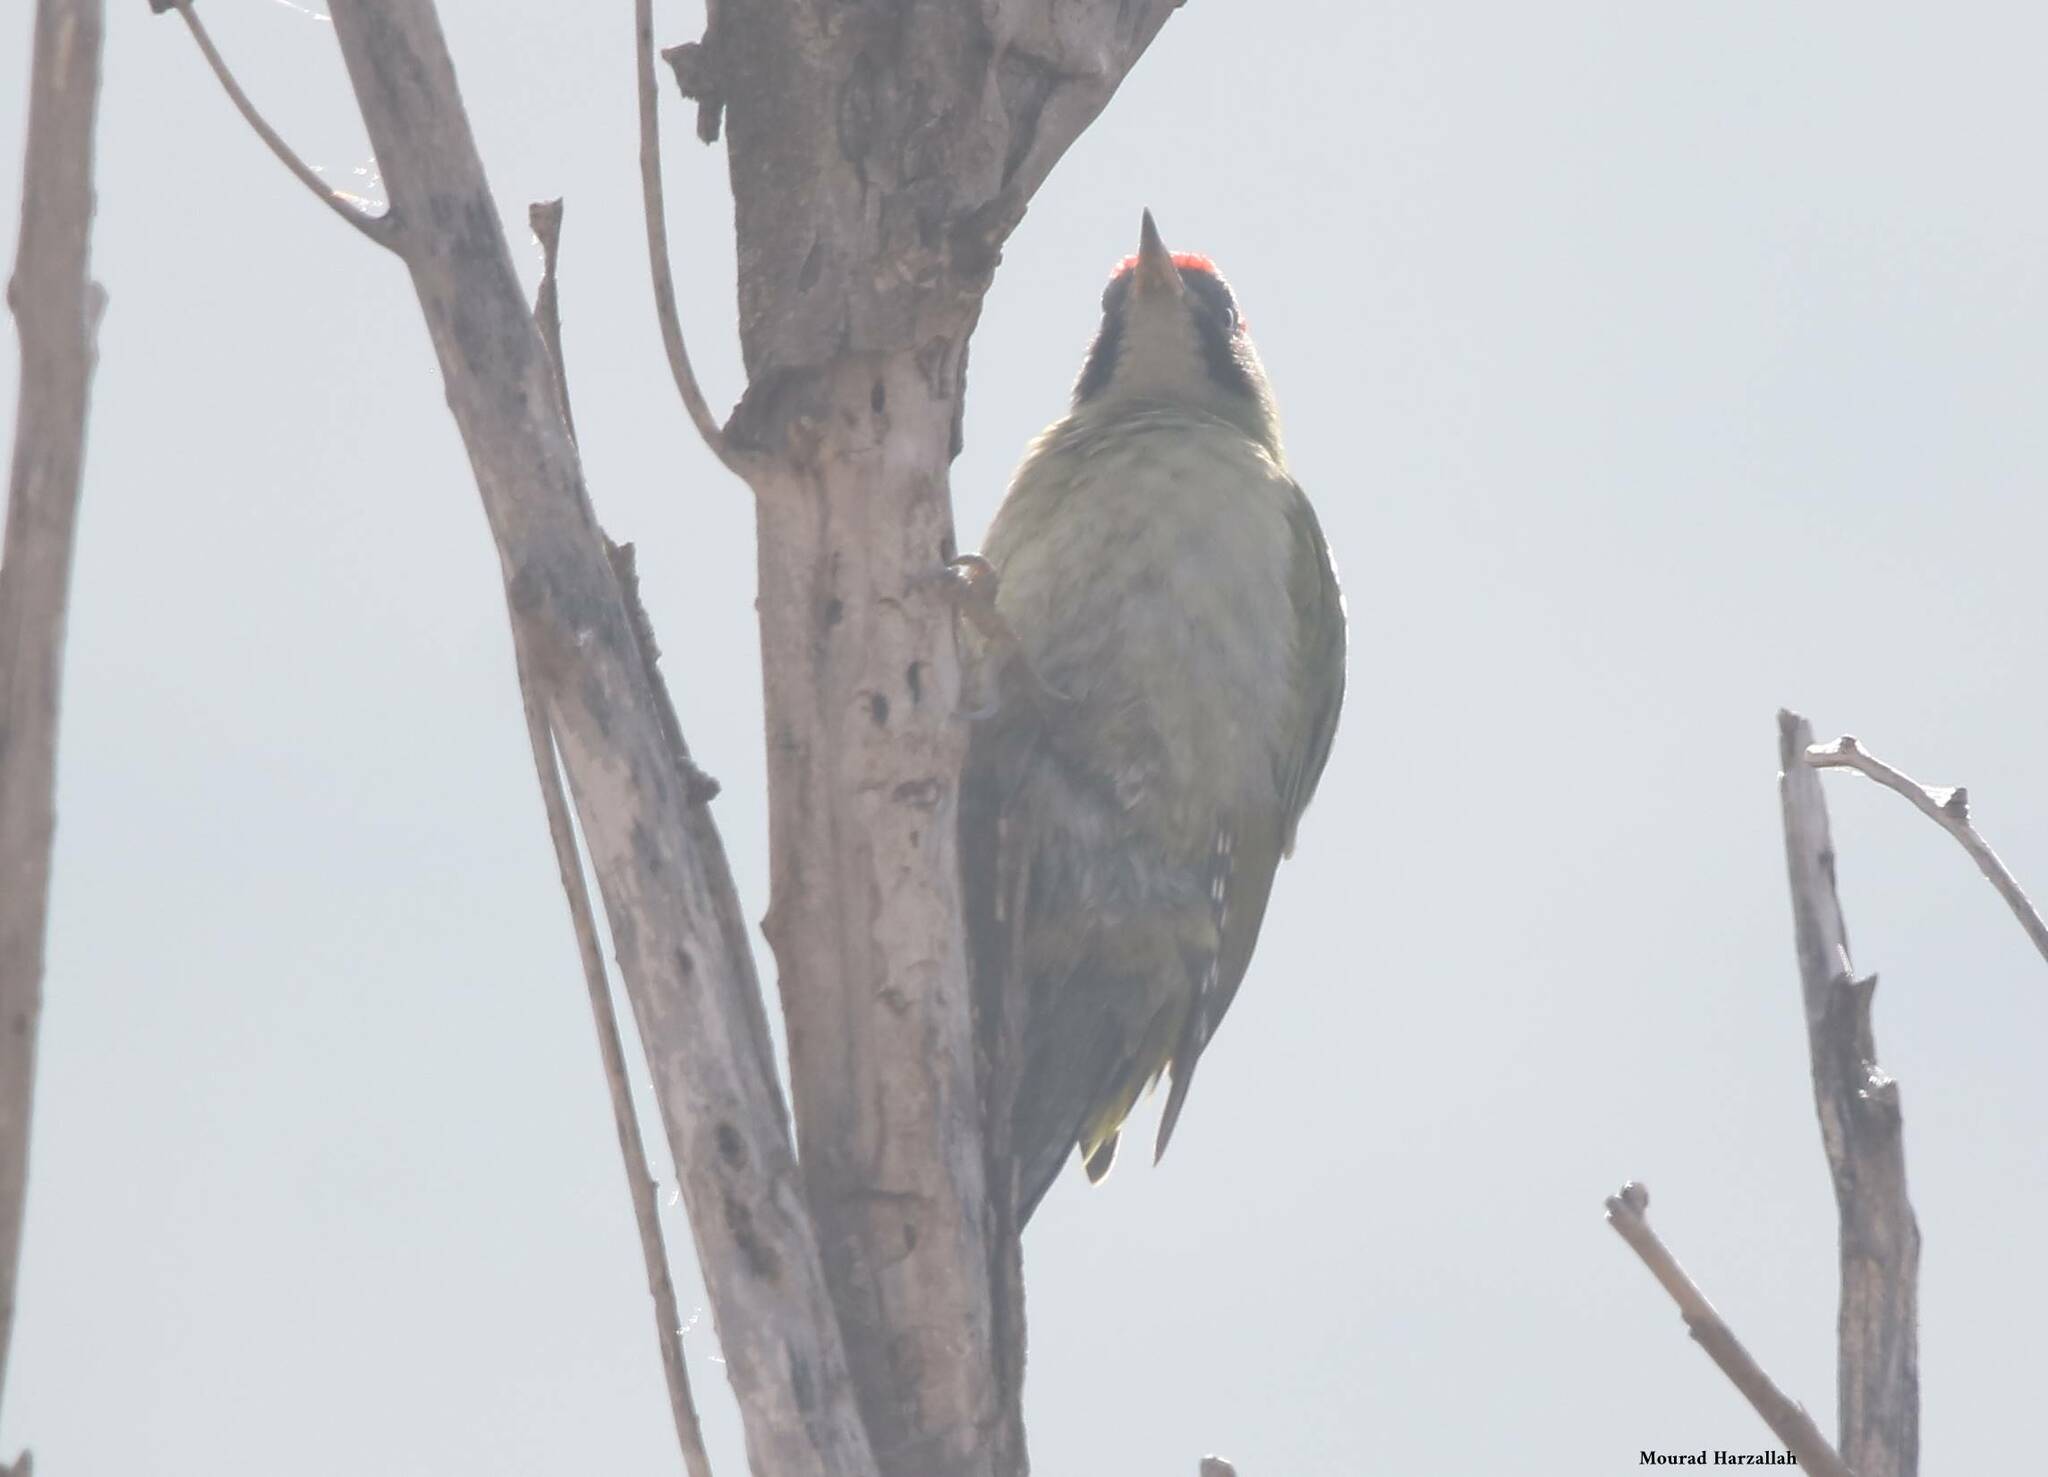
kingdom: Animalia
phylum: Chordata
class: Aves
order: Piciformes
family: Picidae
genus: Picus
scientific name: Picus vaillantii
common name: Levaillant's woodpecker
